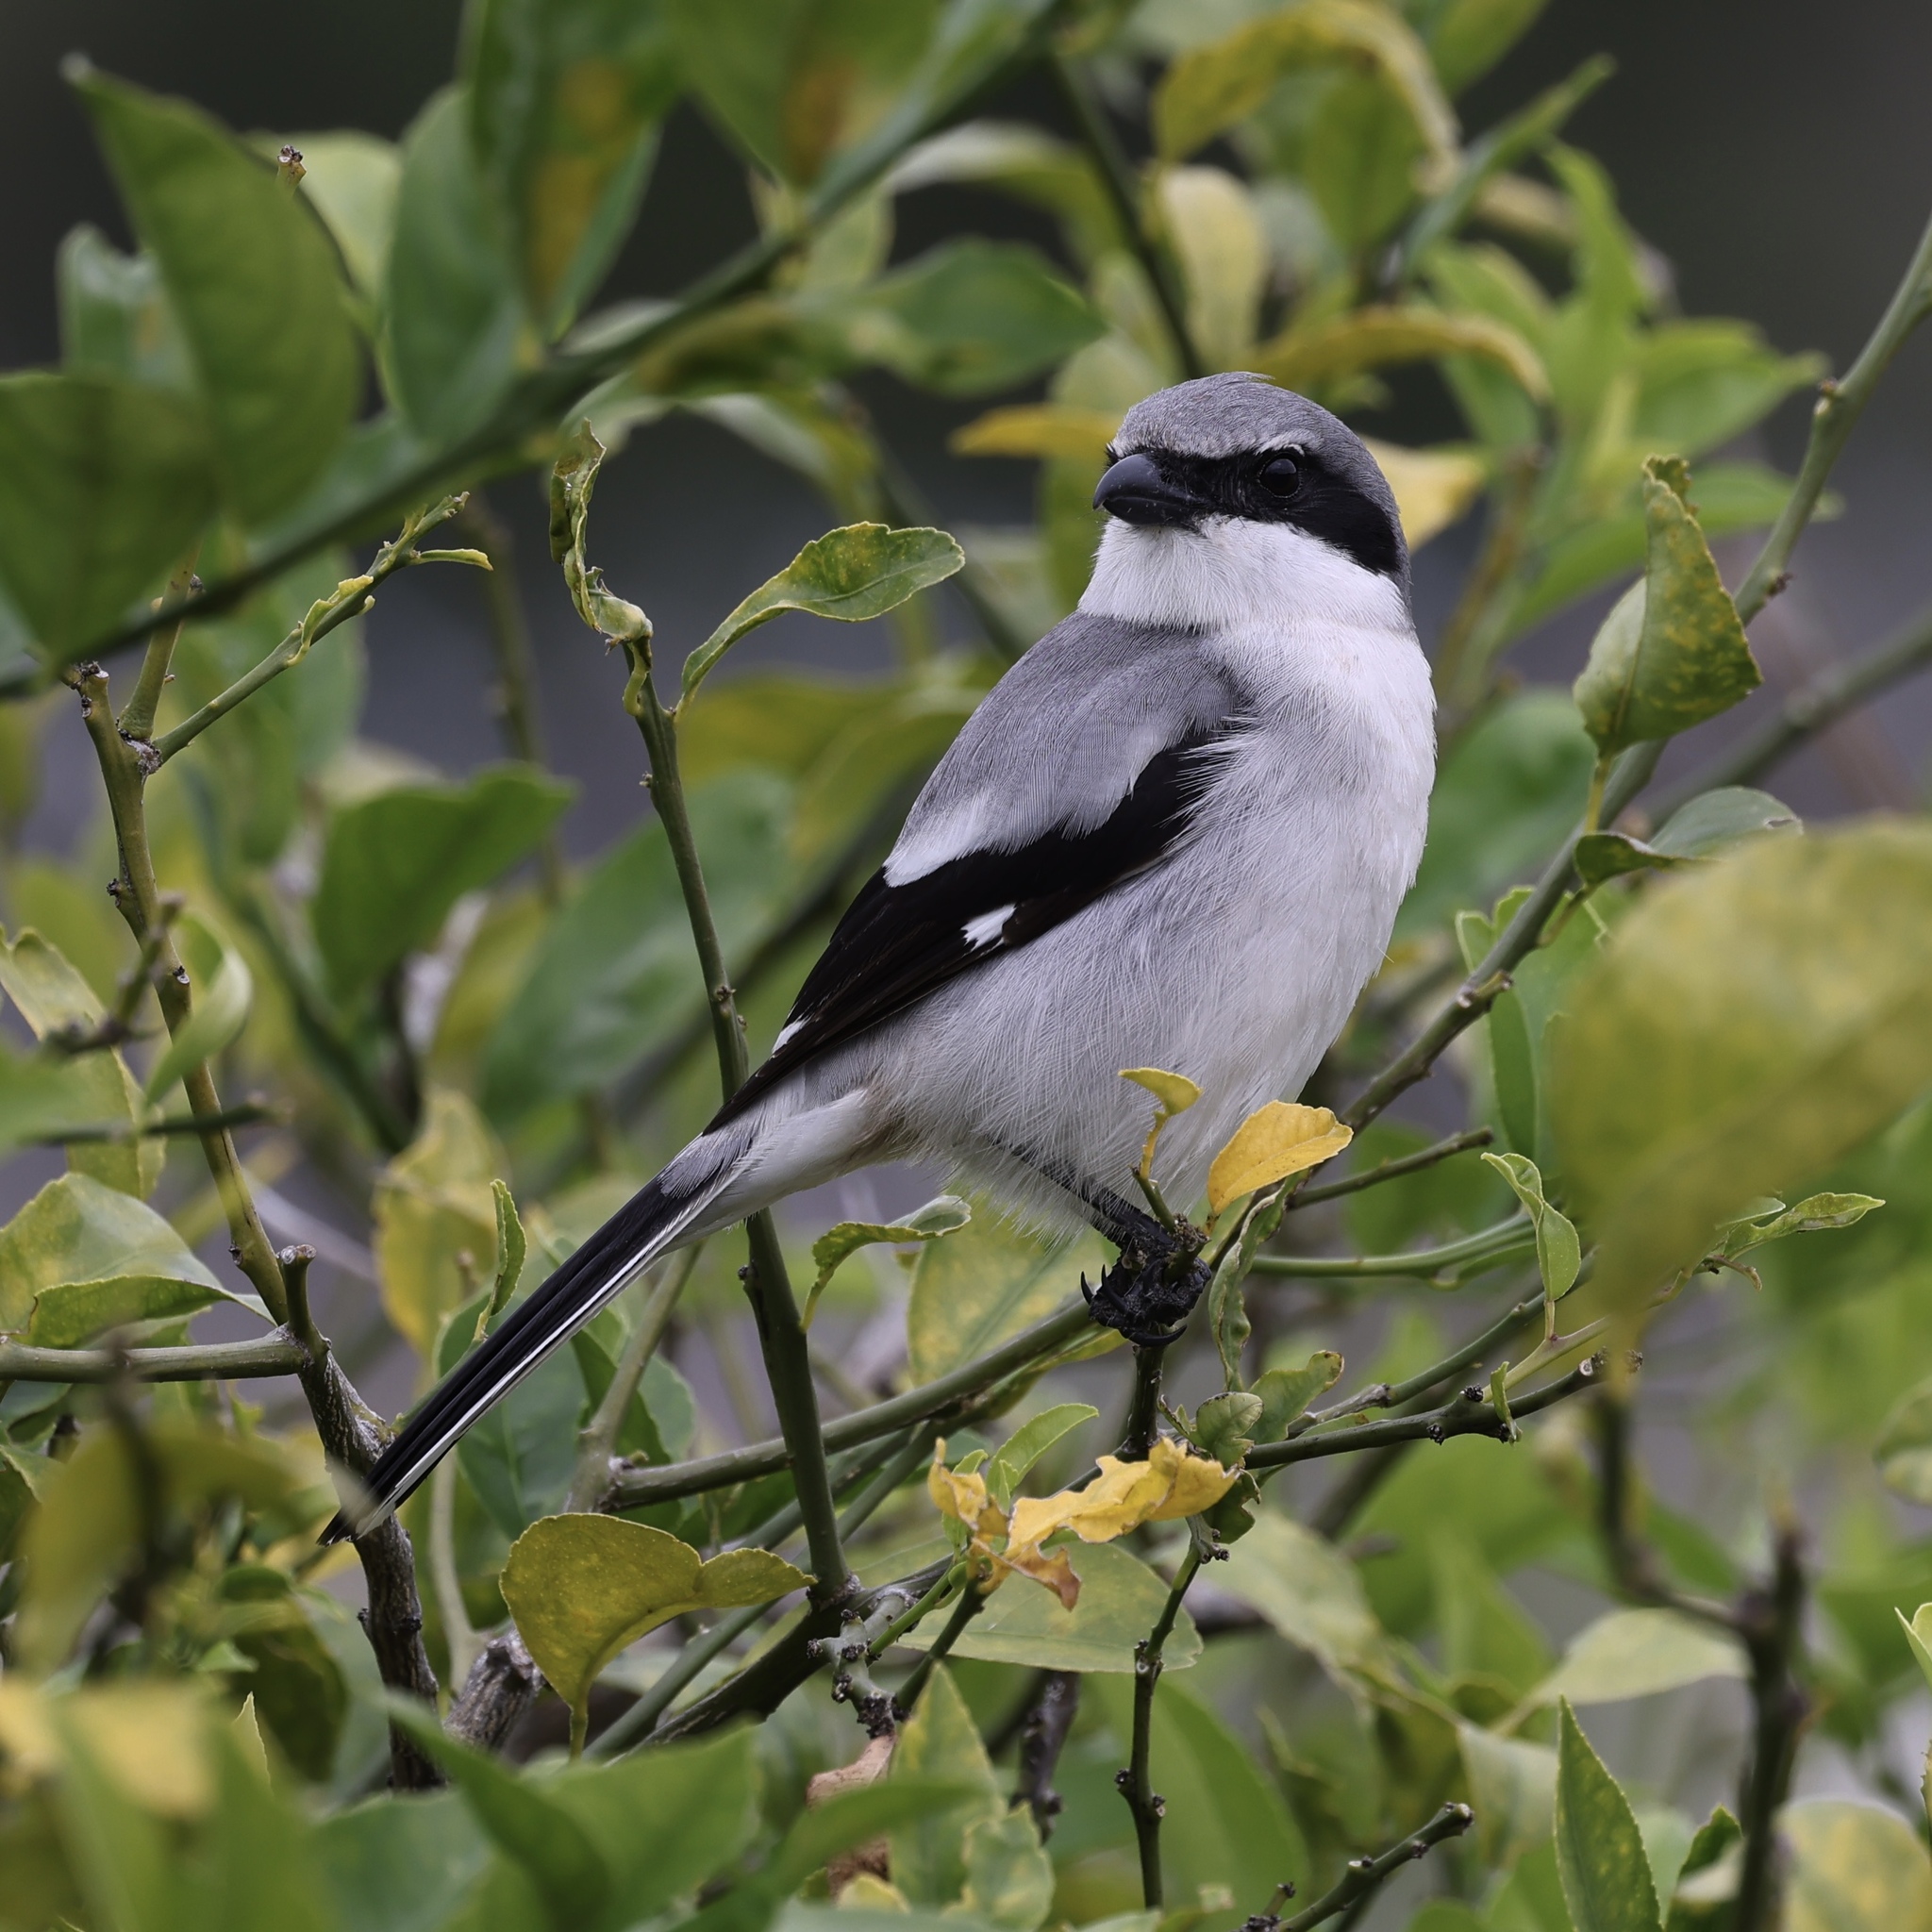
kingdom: Animalia
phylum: Chordata
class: Aves
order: Passeriformes
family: Laniidae
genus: Lanius
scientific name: Lanius ludovicianus
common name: Loggerhead shrike
